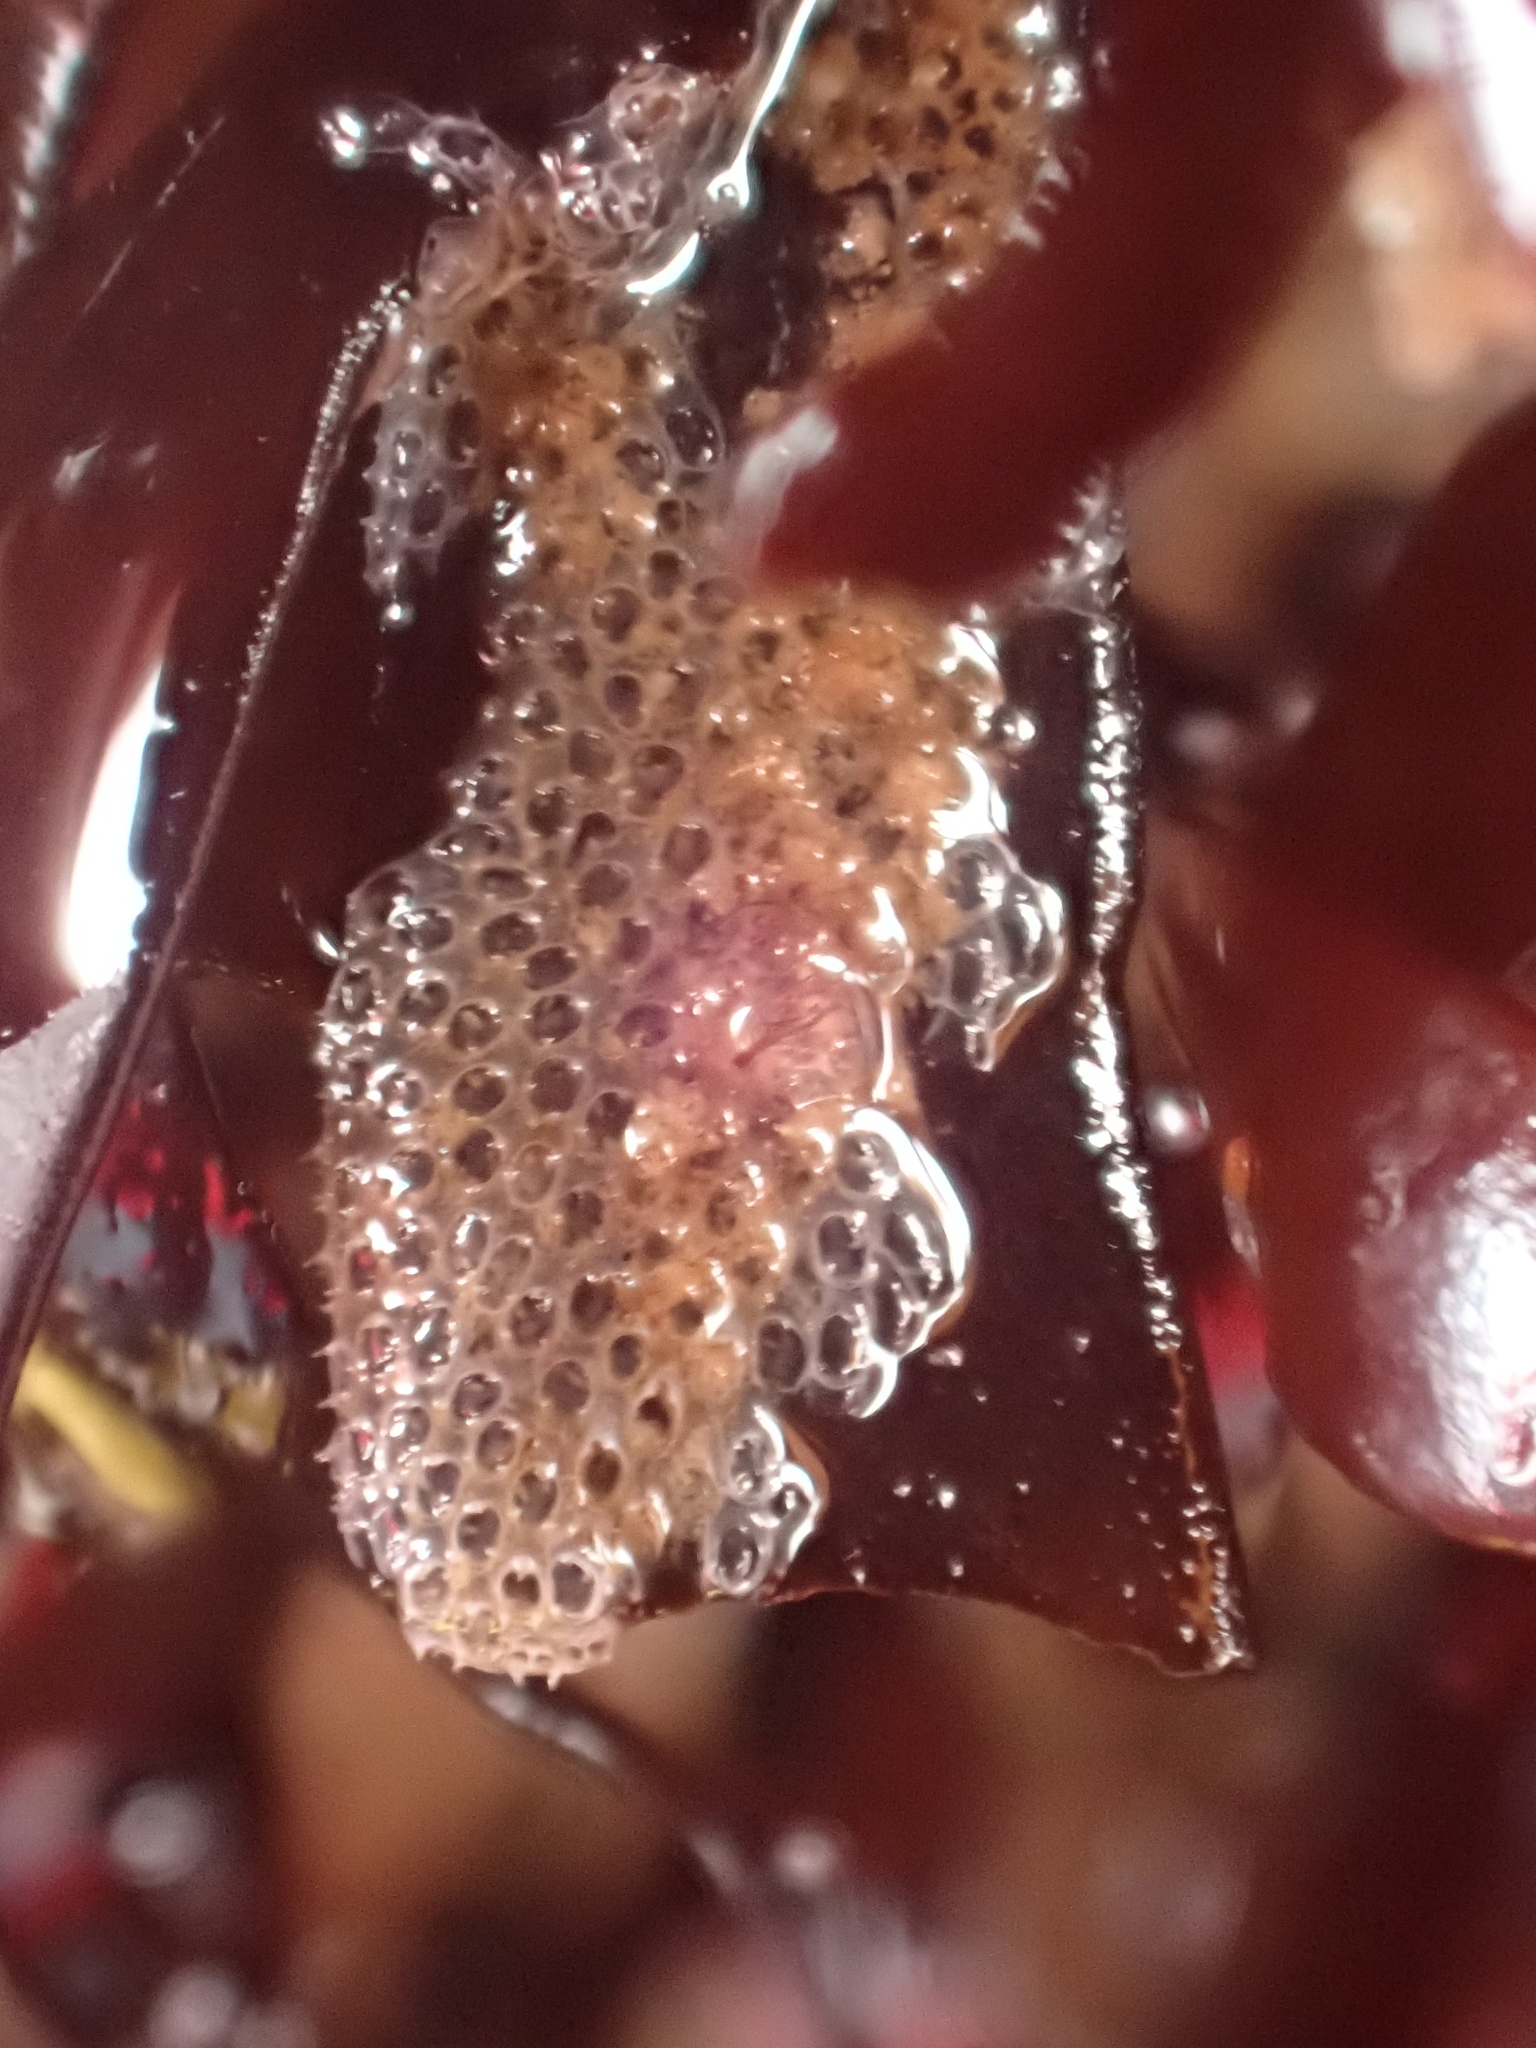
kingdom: Animalia
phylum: Bryozoa
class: Gymnolaemata
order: Cheilostomatida
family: Electridae
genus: Electra
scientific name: Electra pilosa
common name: Hairy sea-mat
